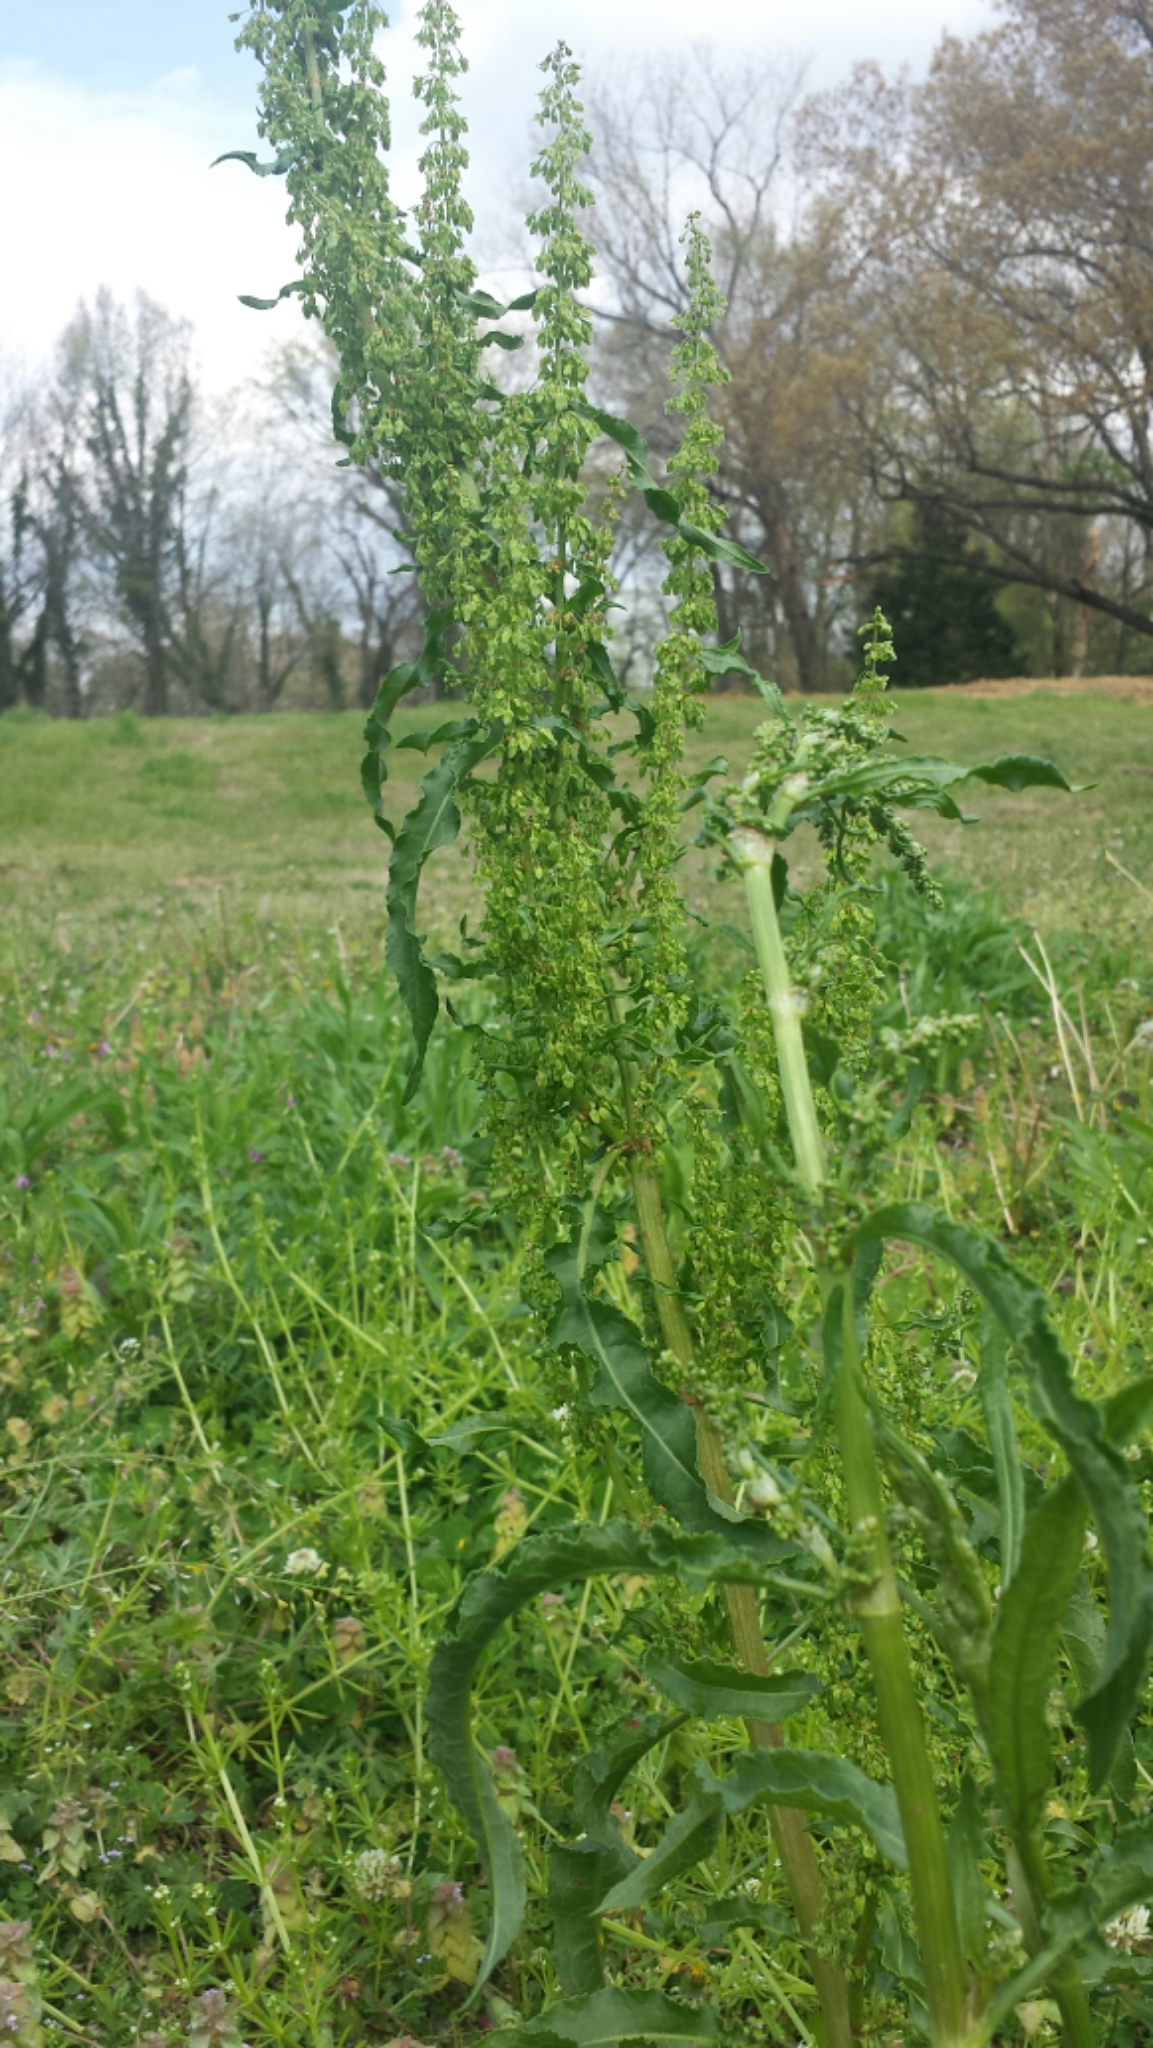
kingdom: Plantae
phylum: Tracheophyta
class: Magnoliopsida
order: Caryophyllales
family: Polygonaceae
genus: Rumex
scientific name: Rumex crispus
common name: Curled dock
